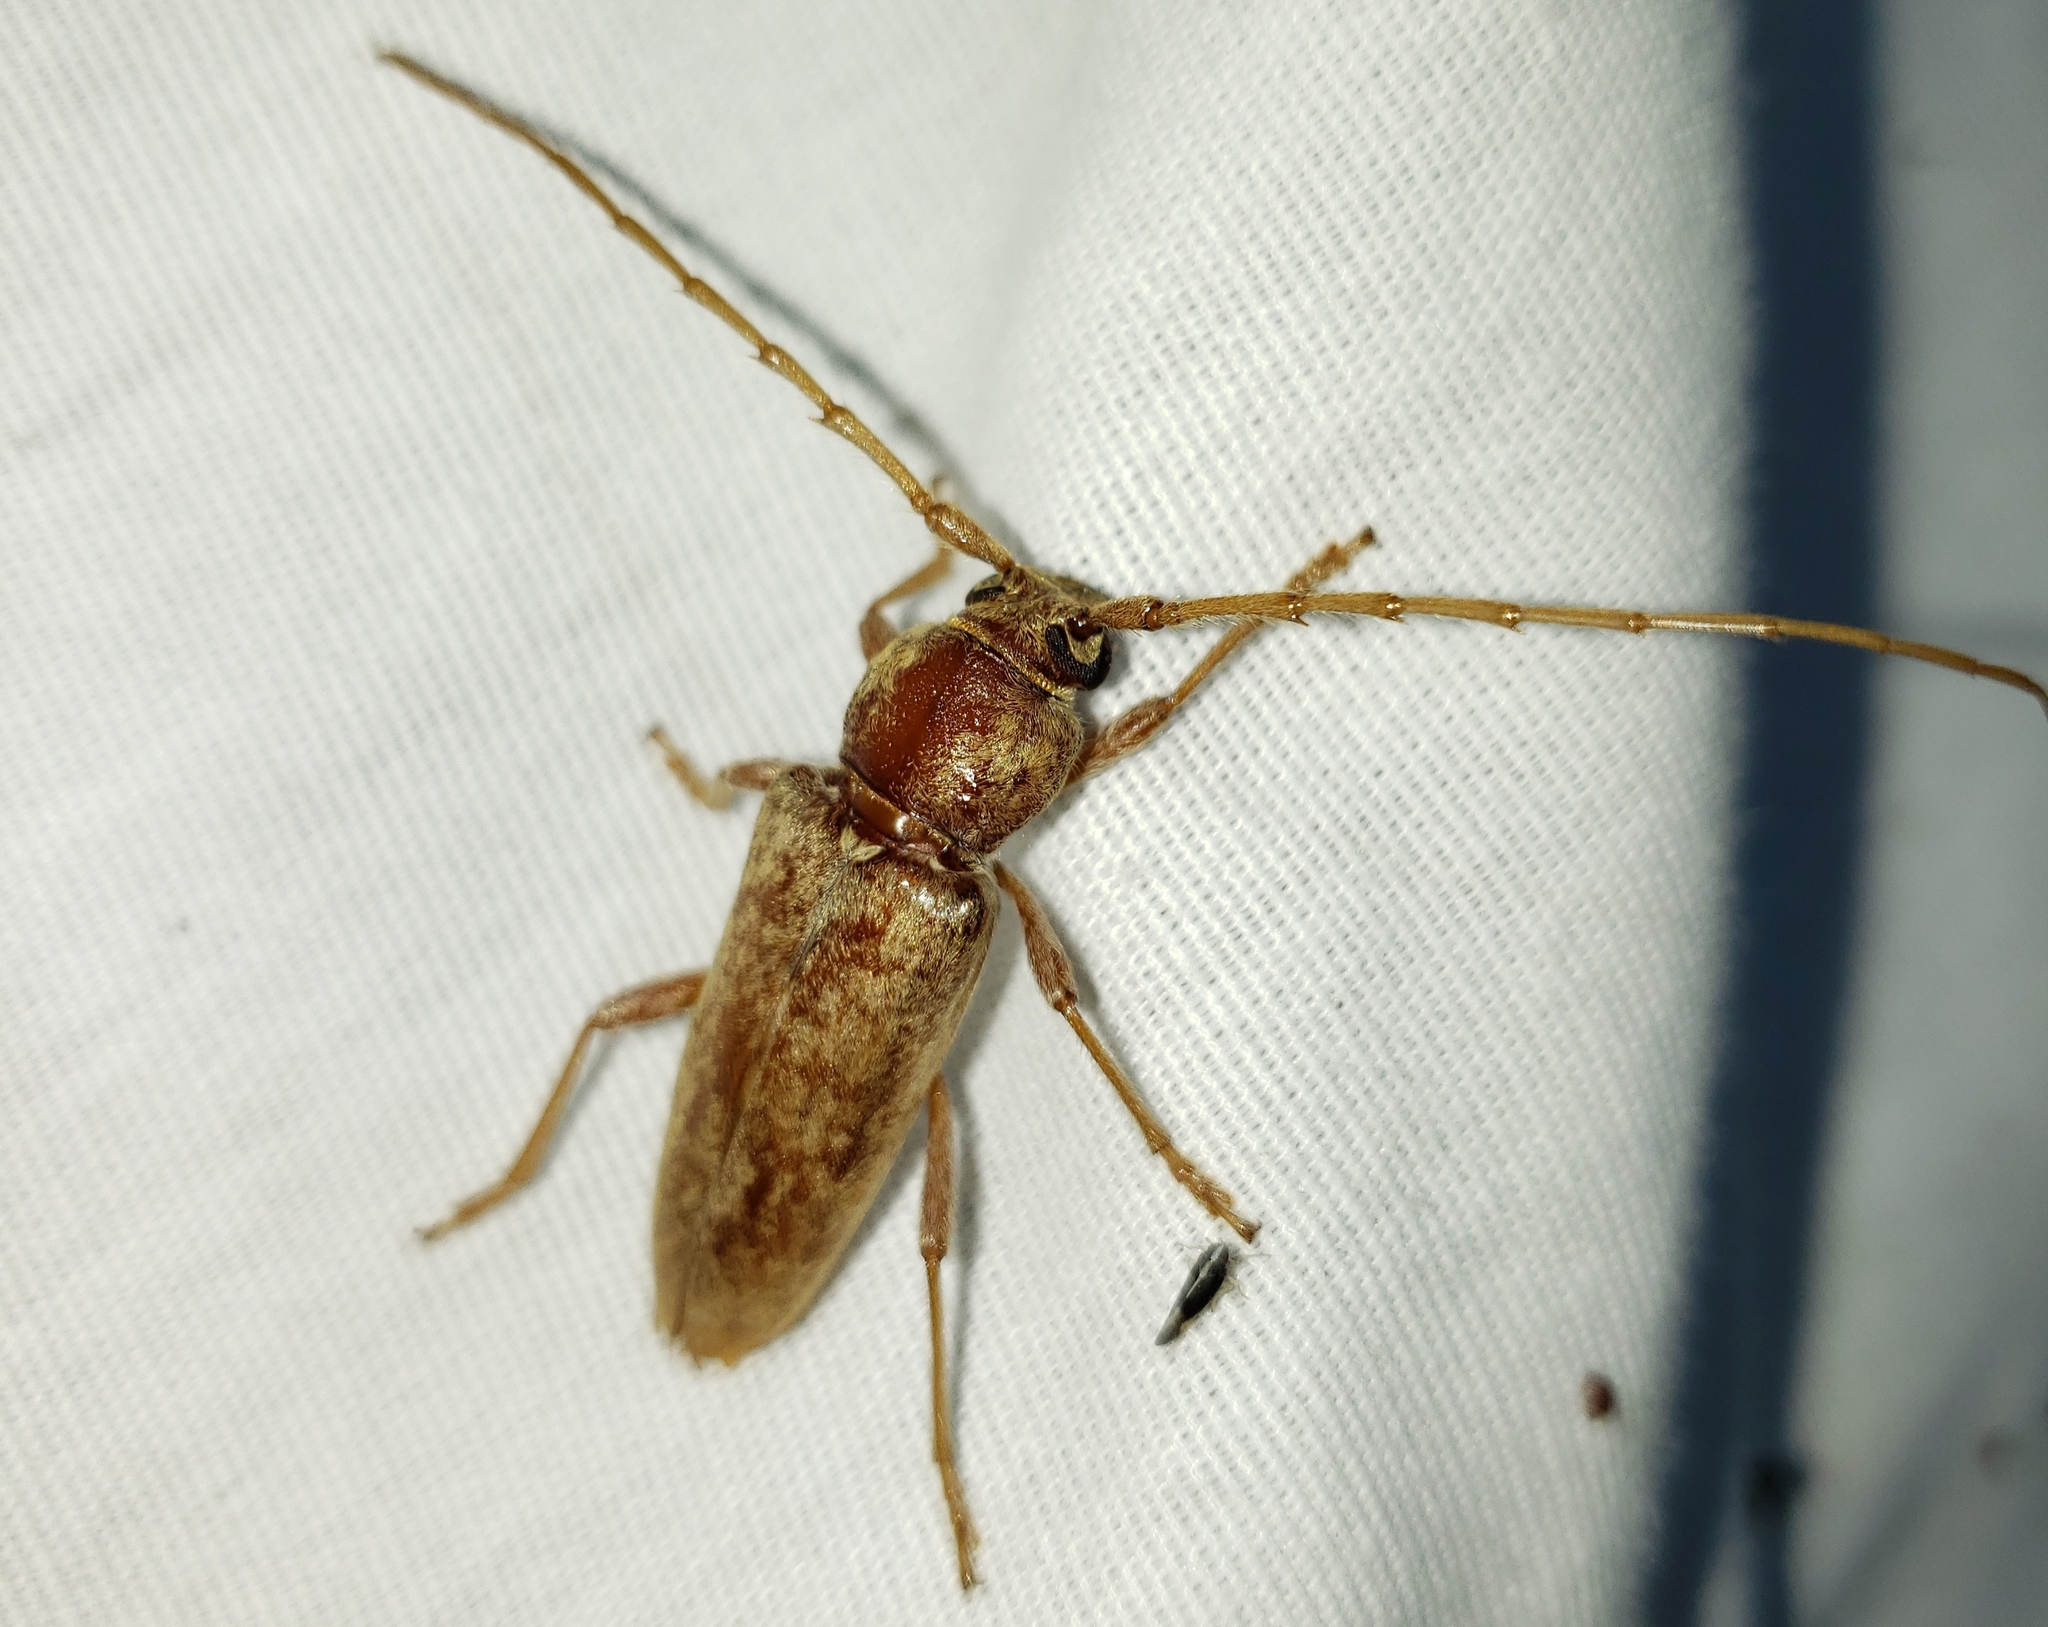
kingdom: Animalia
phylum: Arthropoda
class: Insecta
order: Coleoptera
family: Cerambycidae
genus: Enaphalodes
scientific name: Enaphalodes rufulus
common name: Red oak borer
